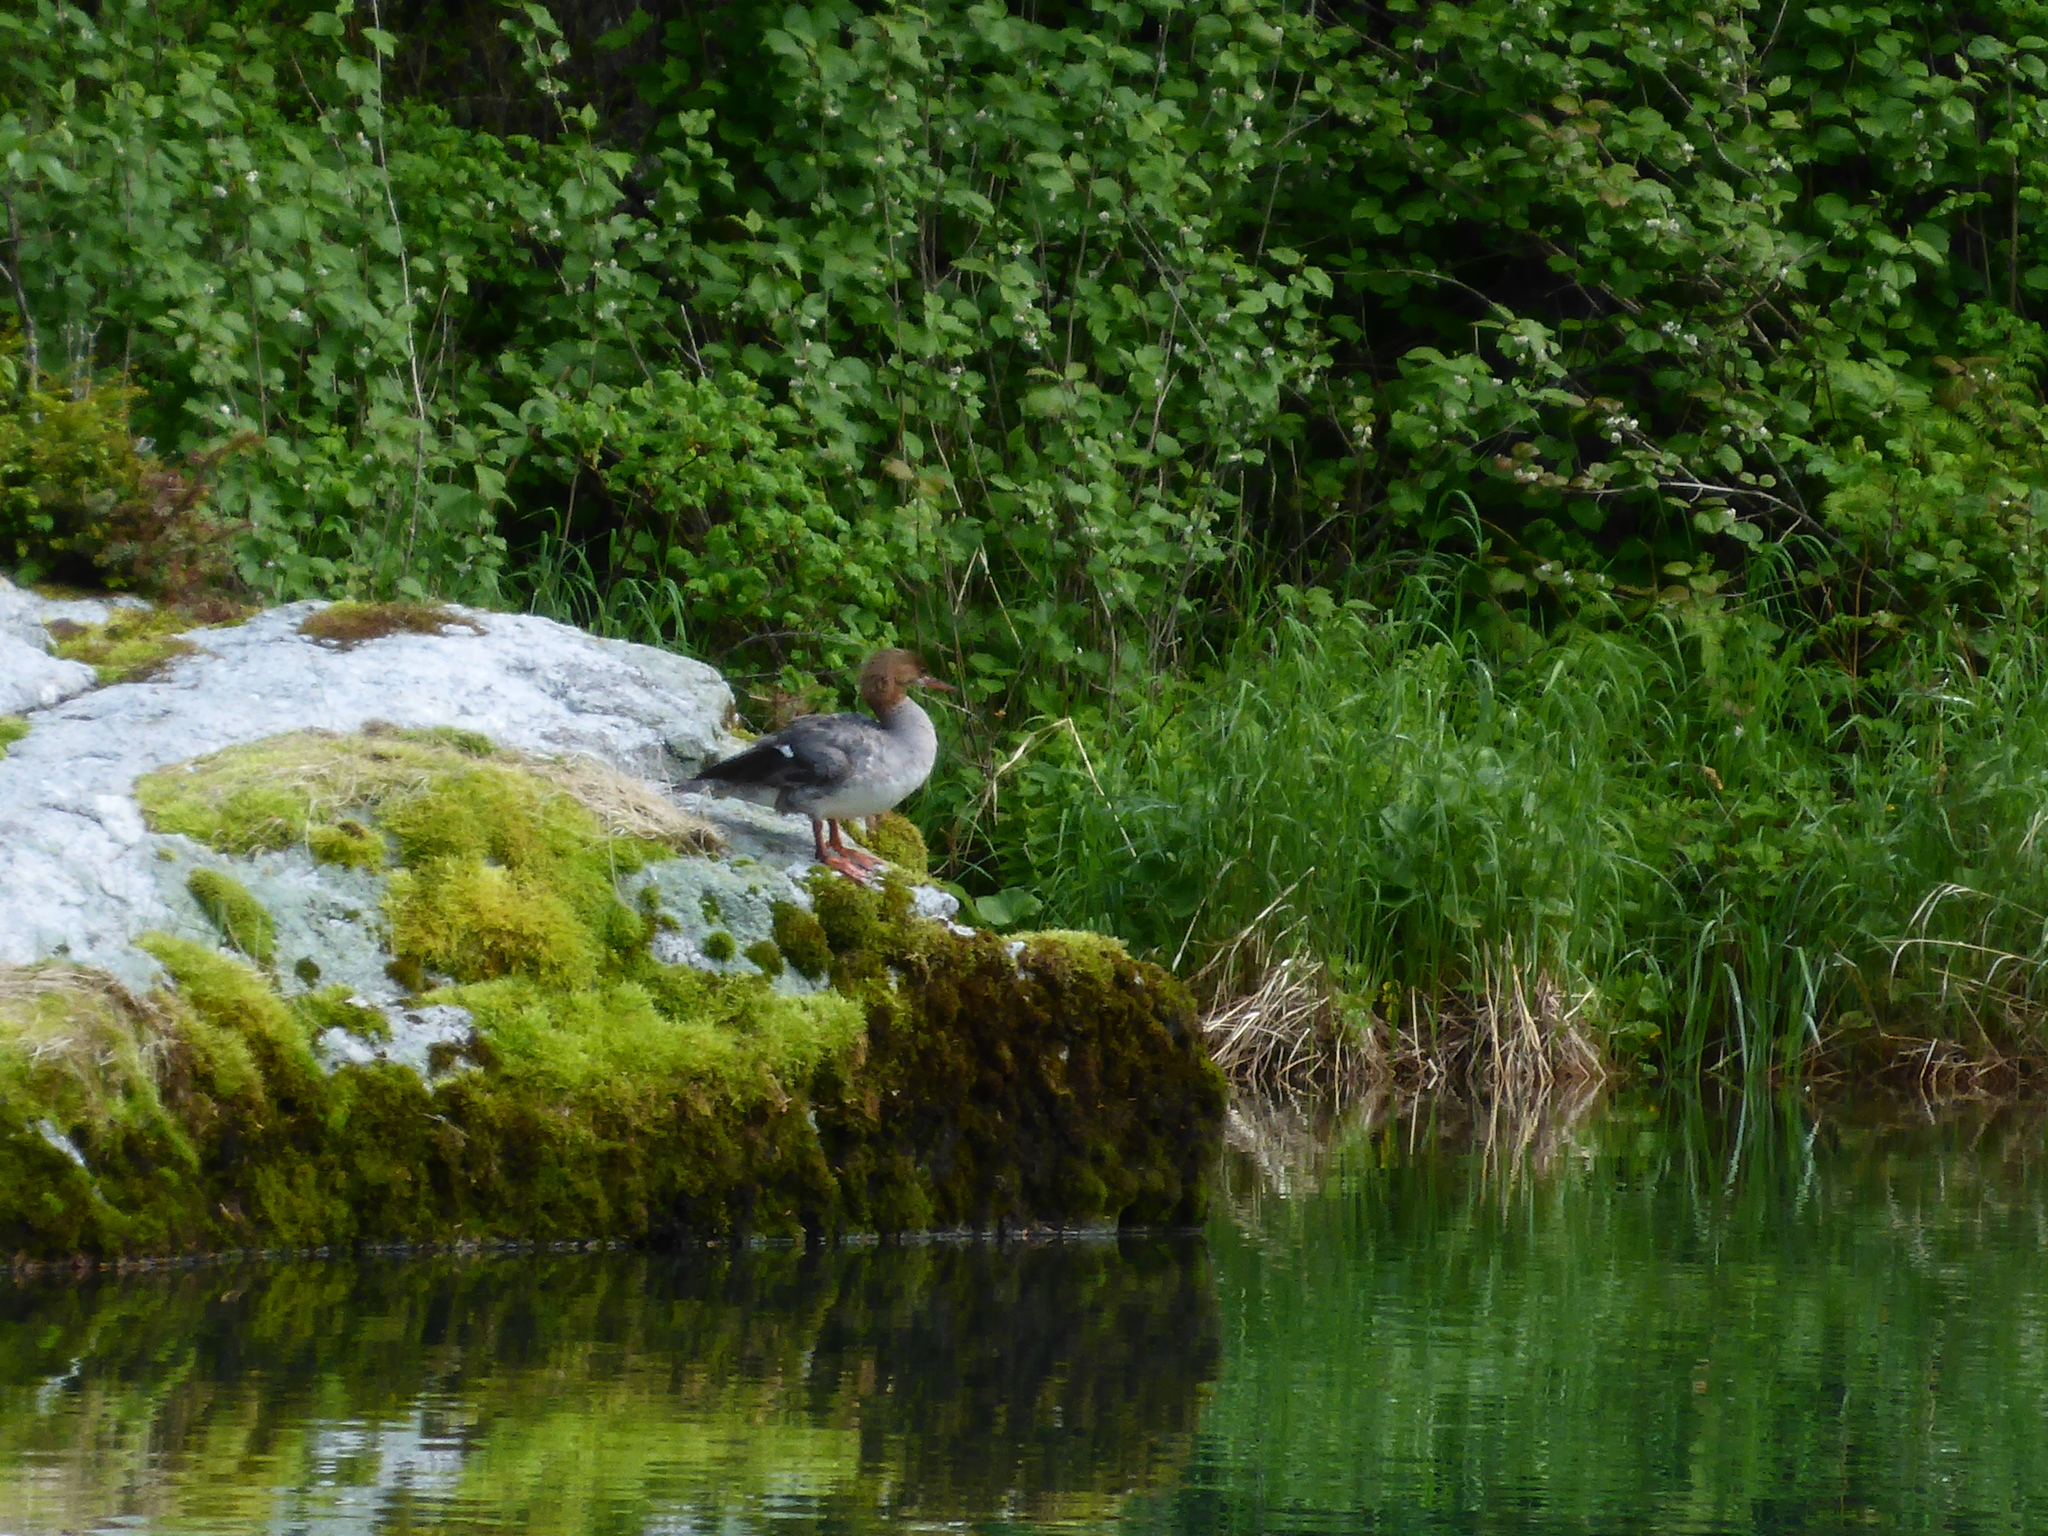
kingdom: Animalia
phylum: Chordata
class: Aves
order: Anseriformes
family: Anatidae
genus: Mergus
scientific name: Mergus merganser
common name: Common merganser
